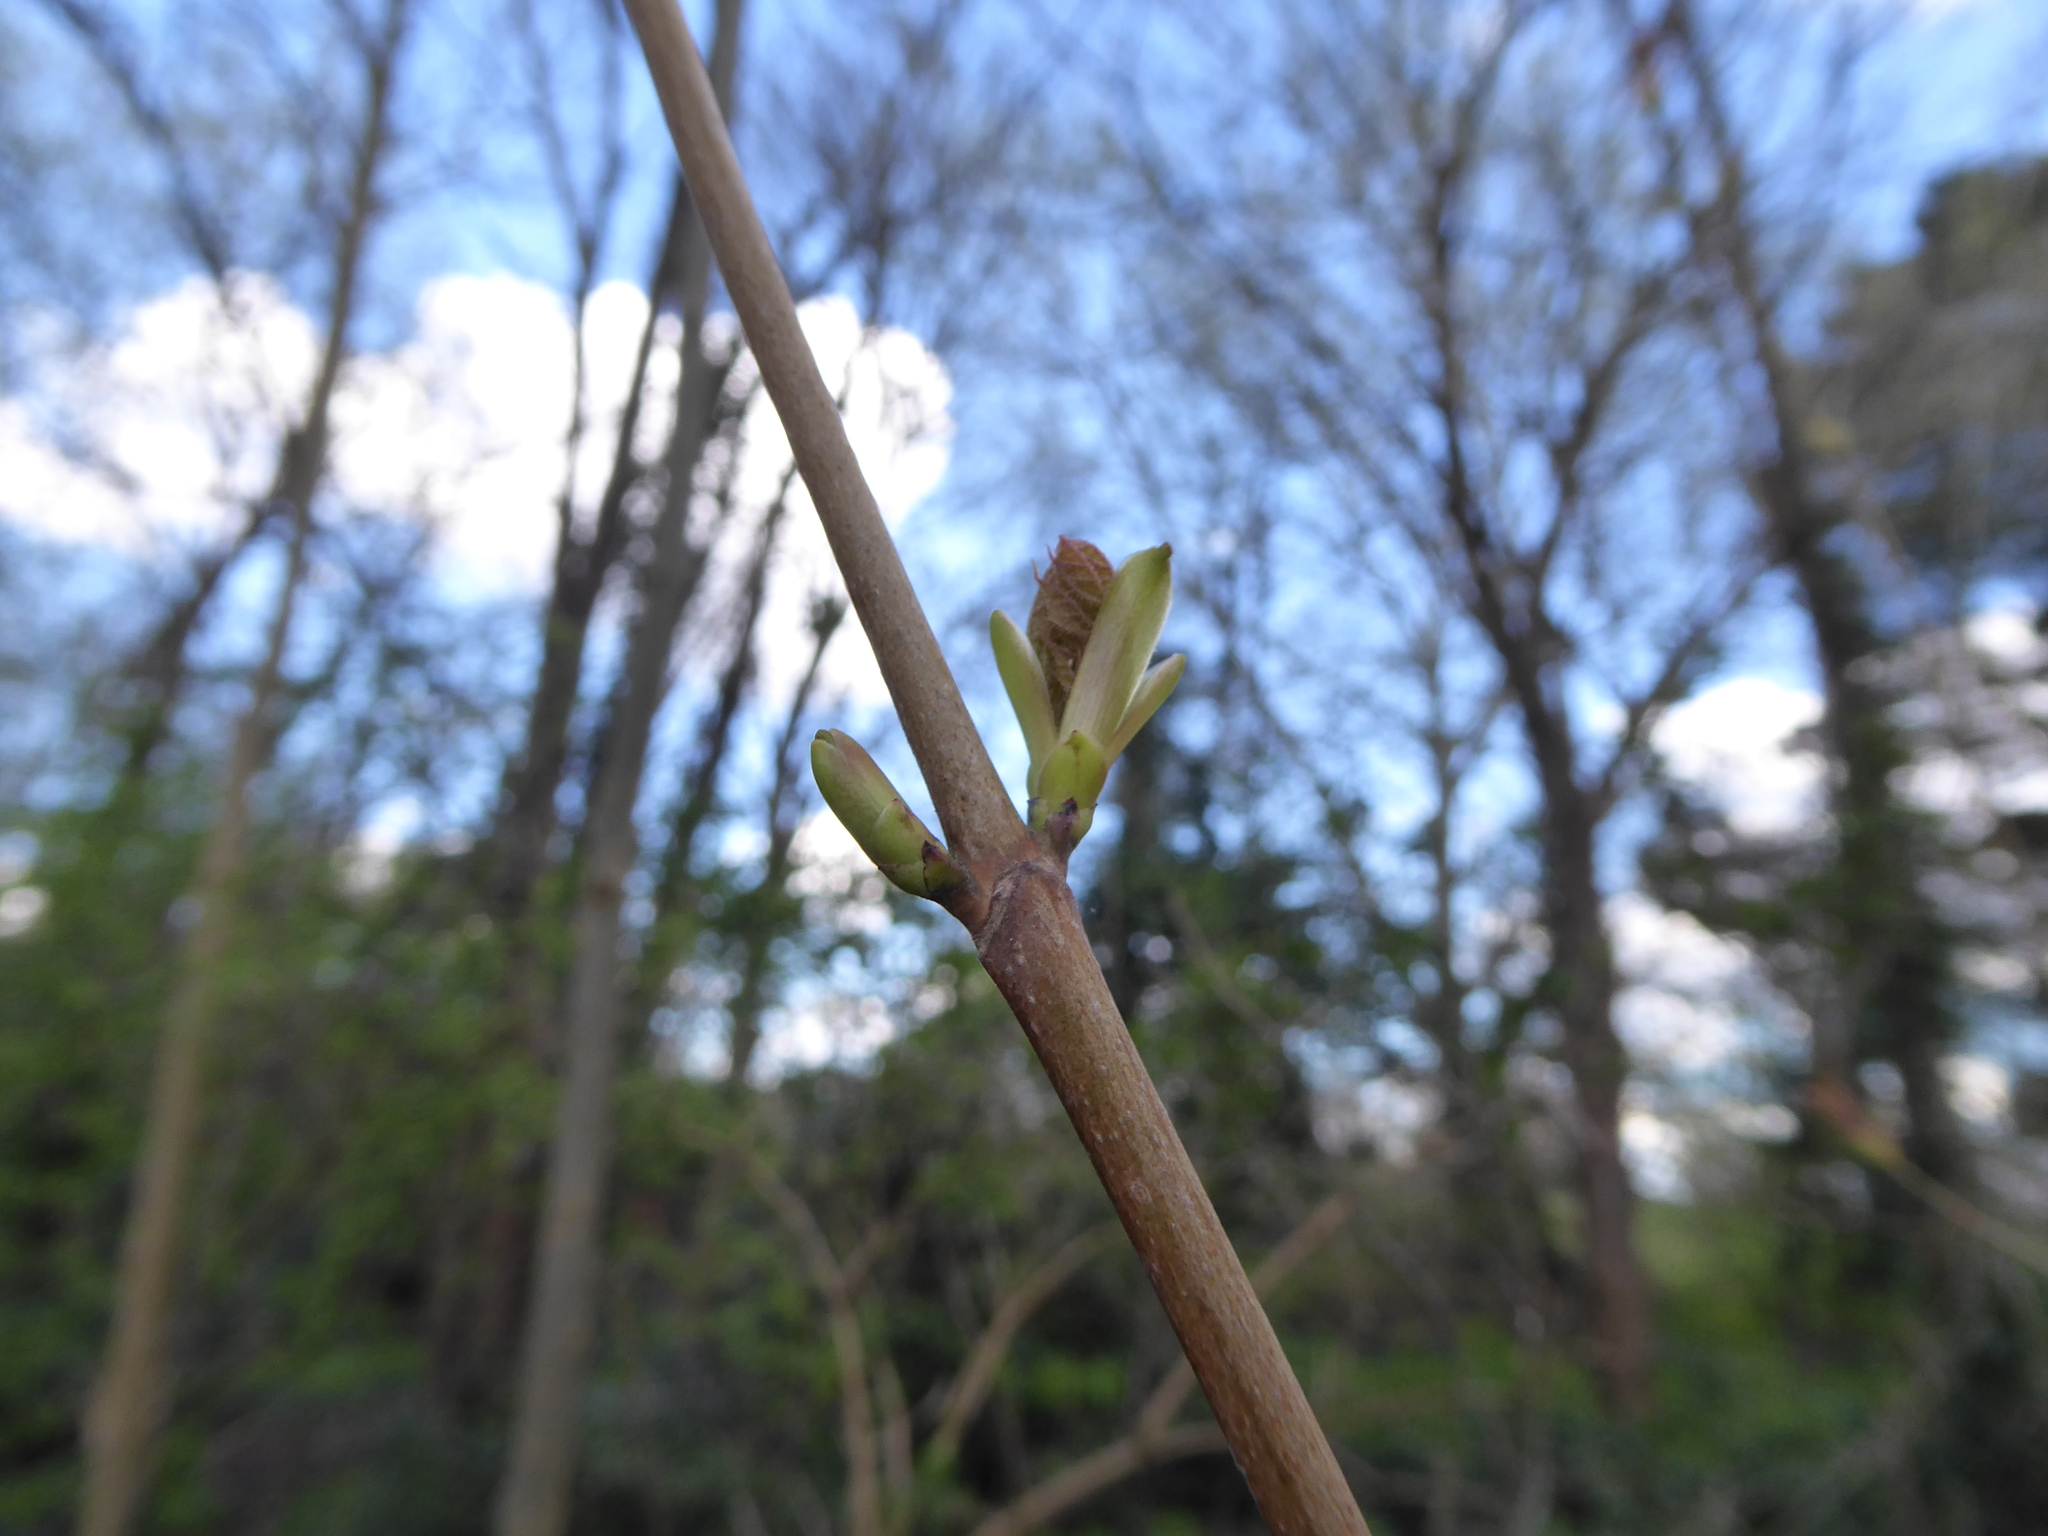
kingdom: Plantae
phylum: Tracheophyta
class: Magnoliopsida
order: Sapindales
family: Sapindaceae
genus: Acer
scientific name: Acer platanoides
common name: Norway maple
